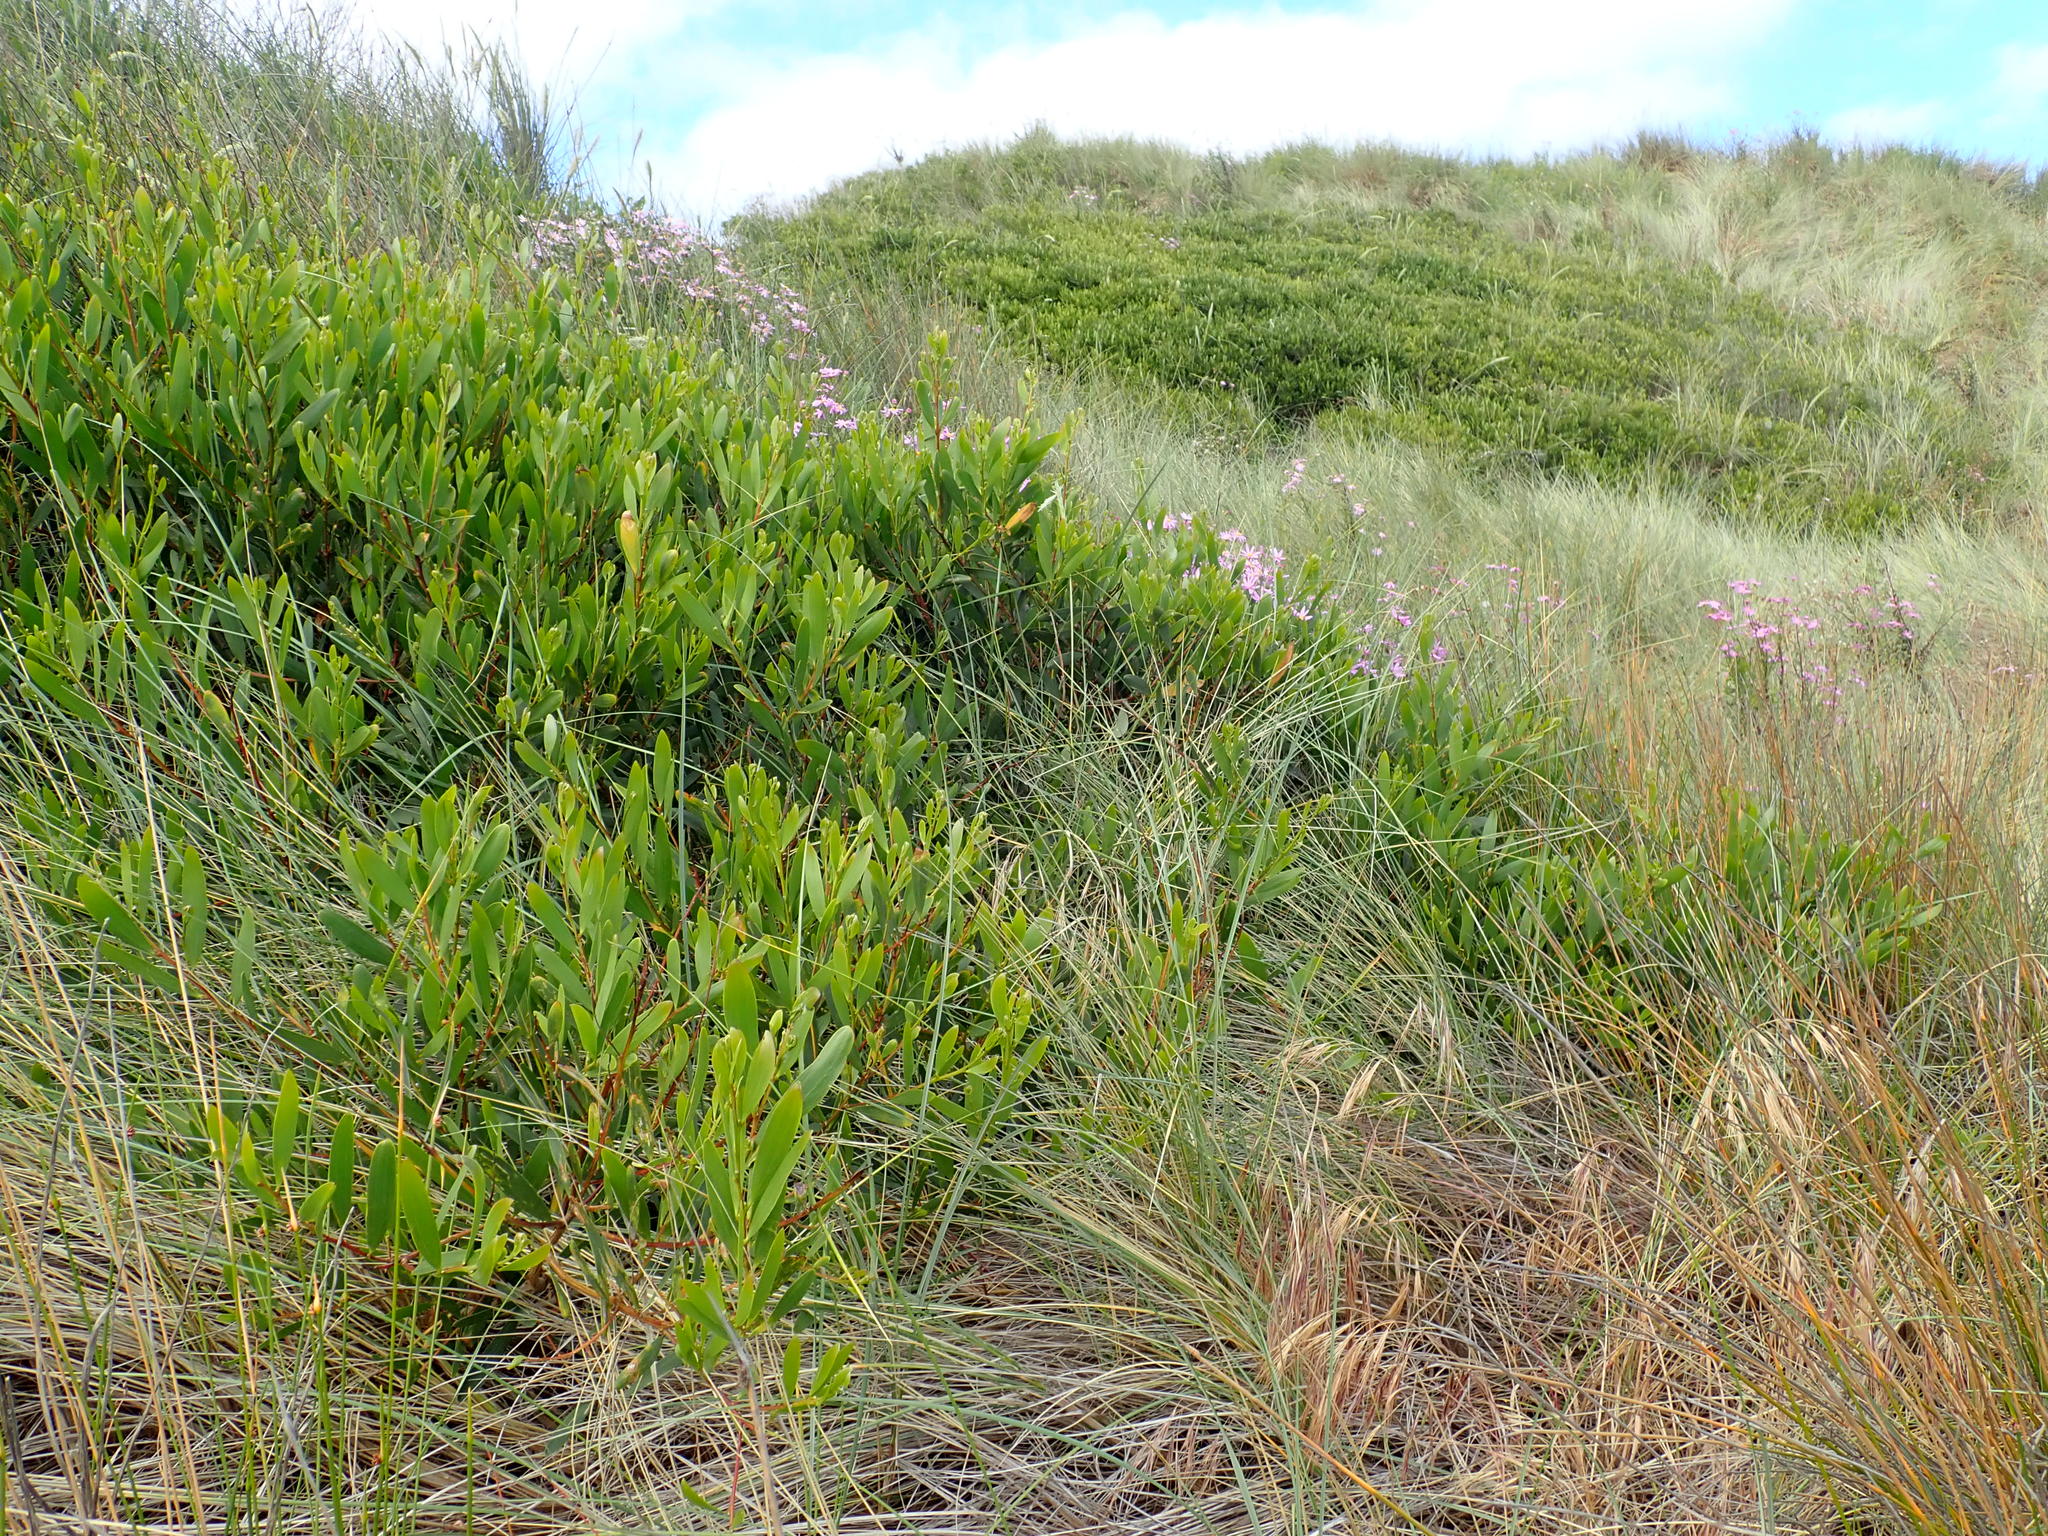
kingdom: Plantae
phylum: Tracheophyta
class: Magnoliopsida
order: Fabales
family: Fabaceae
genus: Acacia
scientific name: Acacia longifolia
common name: Sydney golden wattle
